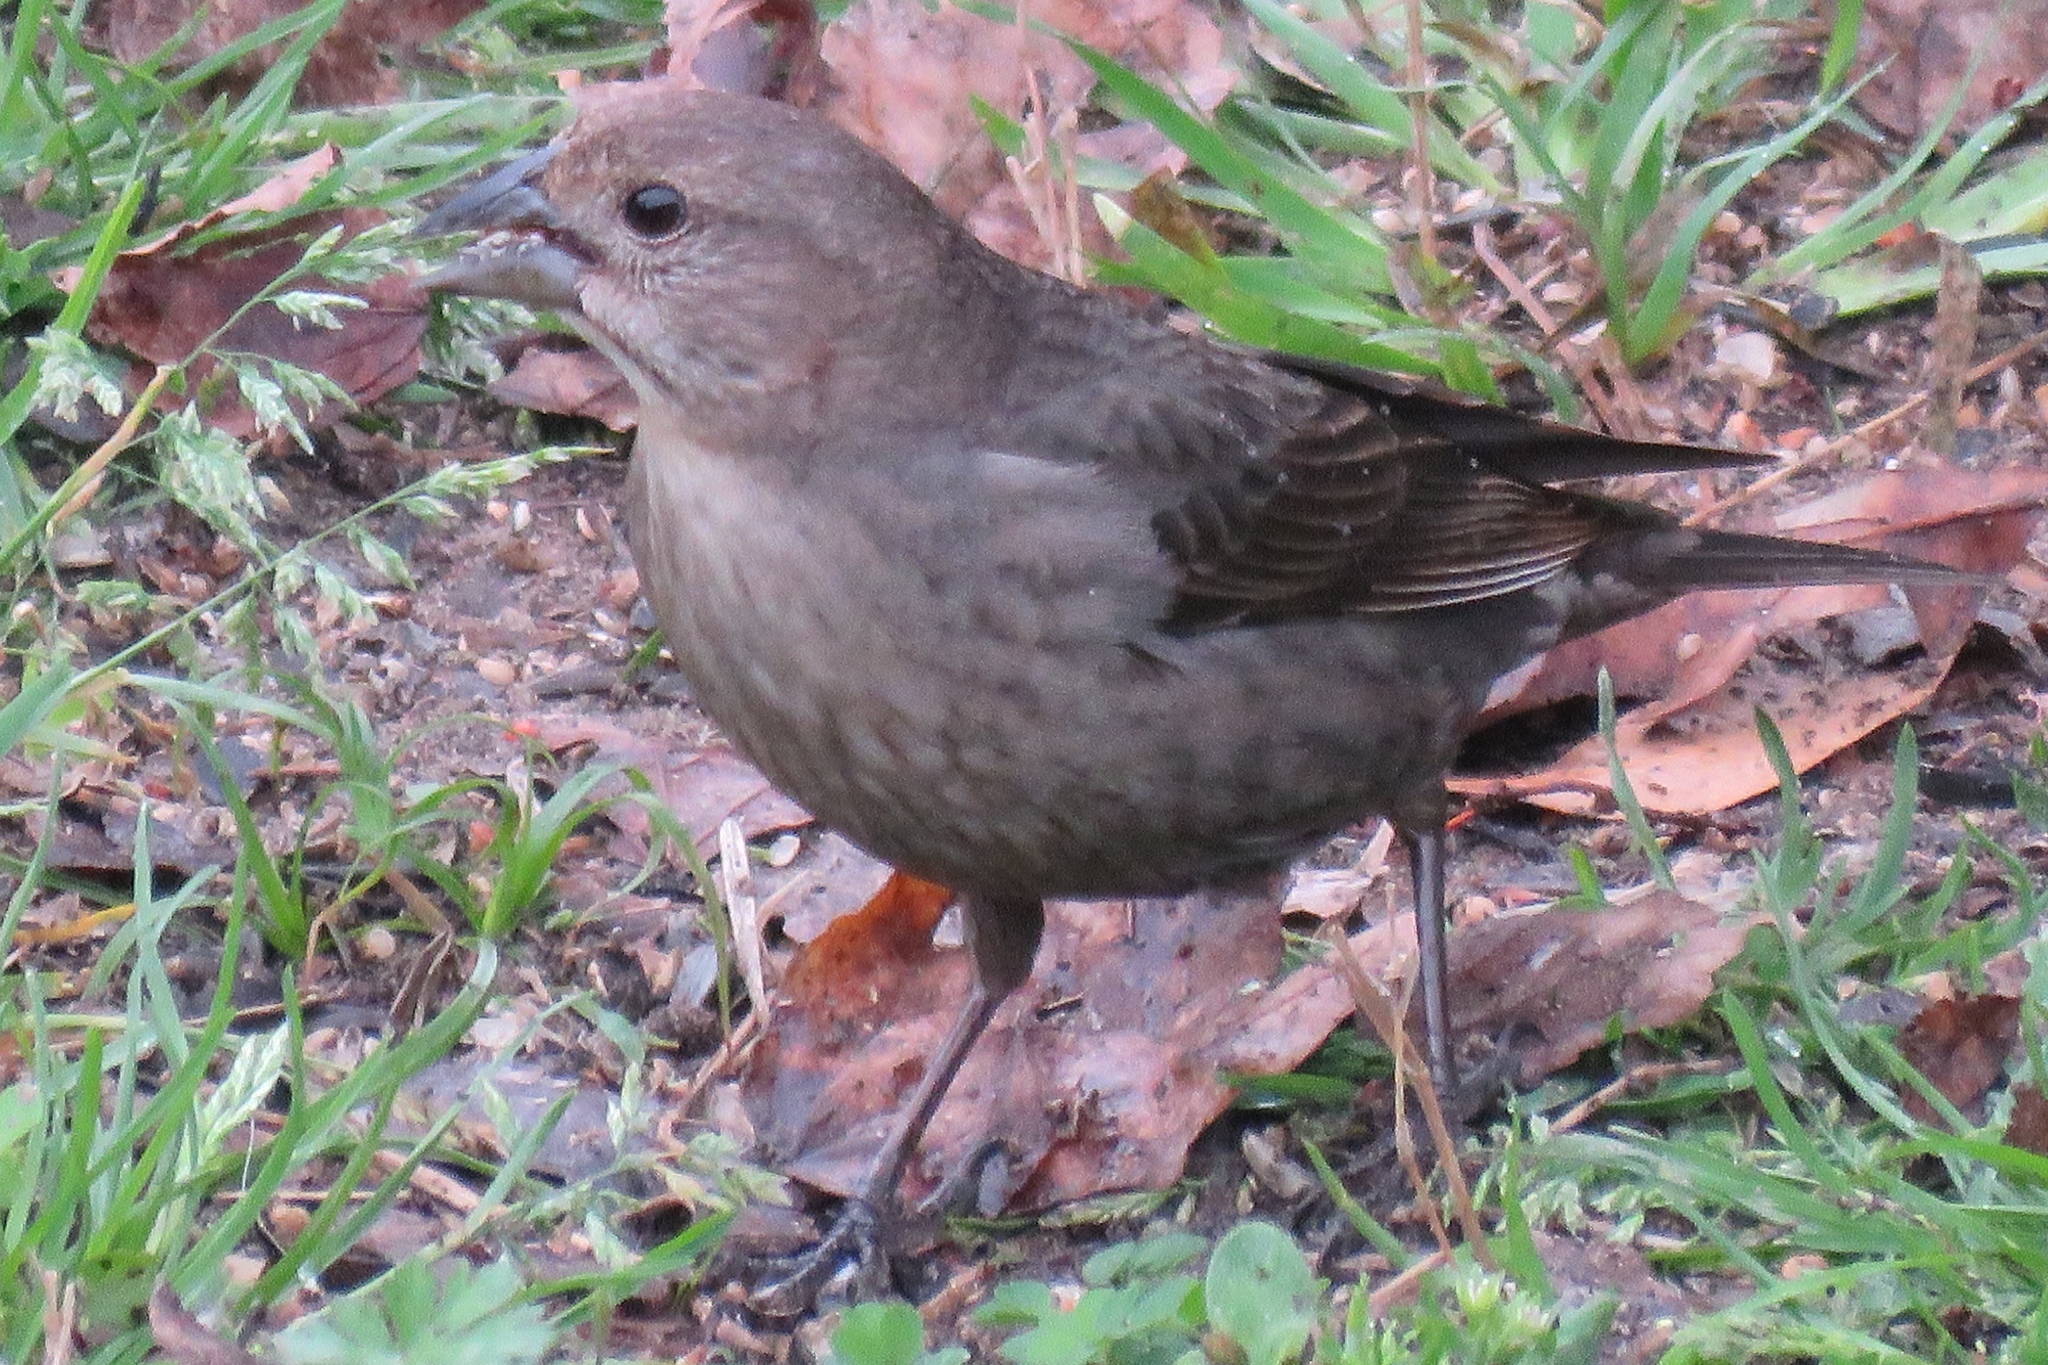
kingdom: Animalia
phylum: Chordata
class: Aves
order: Passeriformes
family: Icteridae
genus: Molothrus
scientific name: Molothrus ater
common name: Brown-headed cowbird
